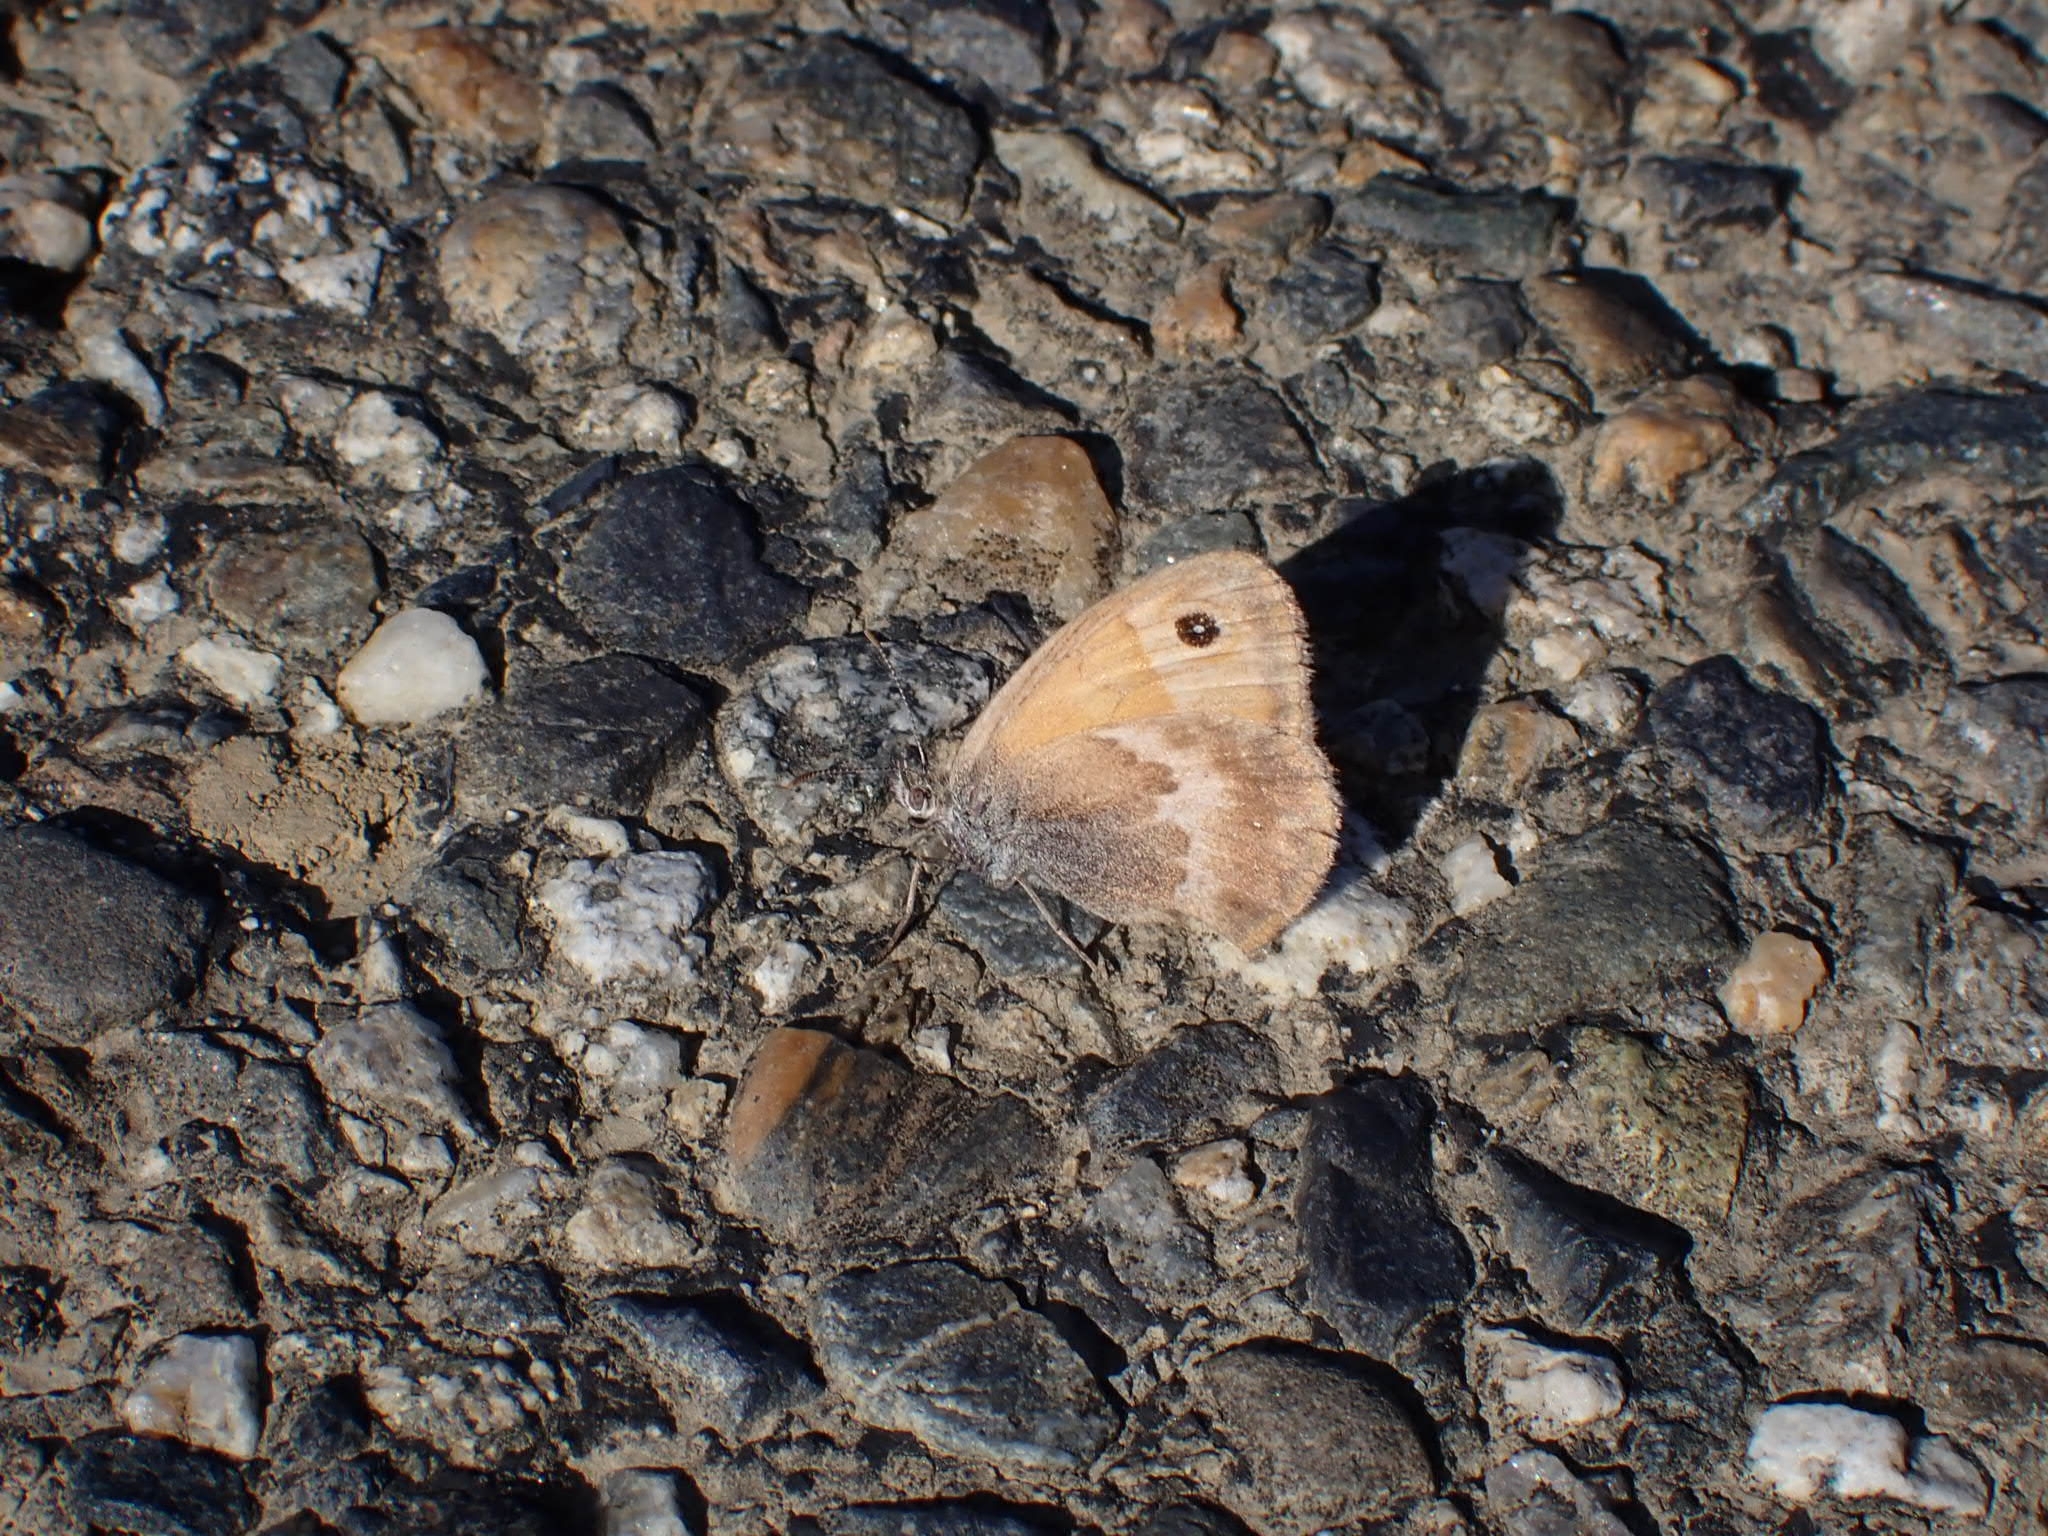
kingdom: Animalia
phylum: Arthropoda
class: Insecta
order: Lepidoptera
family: Nymphalidae
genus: Coenonympha
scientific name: Coenonympha pamphilus
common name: Small heath
